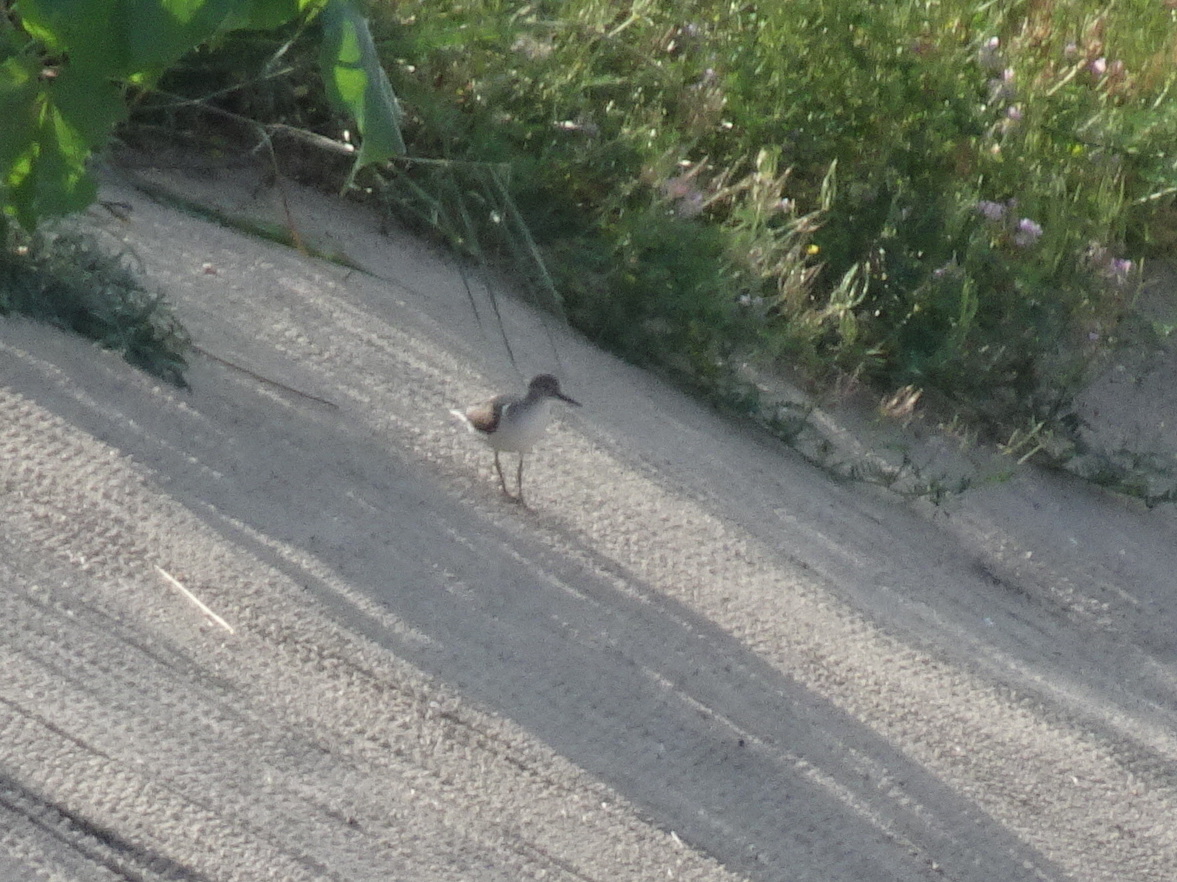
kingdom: Animalia
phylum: Chordata
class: Aves
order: Charadriiformes
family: Scolopacidae
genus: Actitis
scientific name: Actitis macularius
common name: Spotted sandpiper
